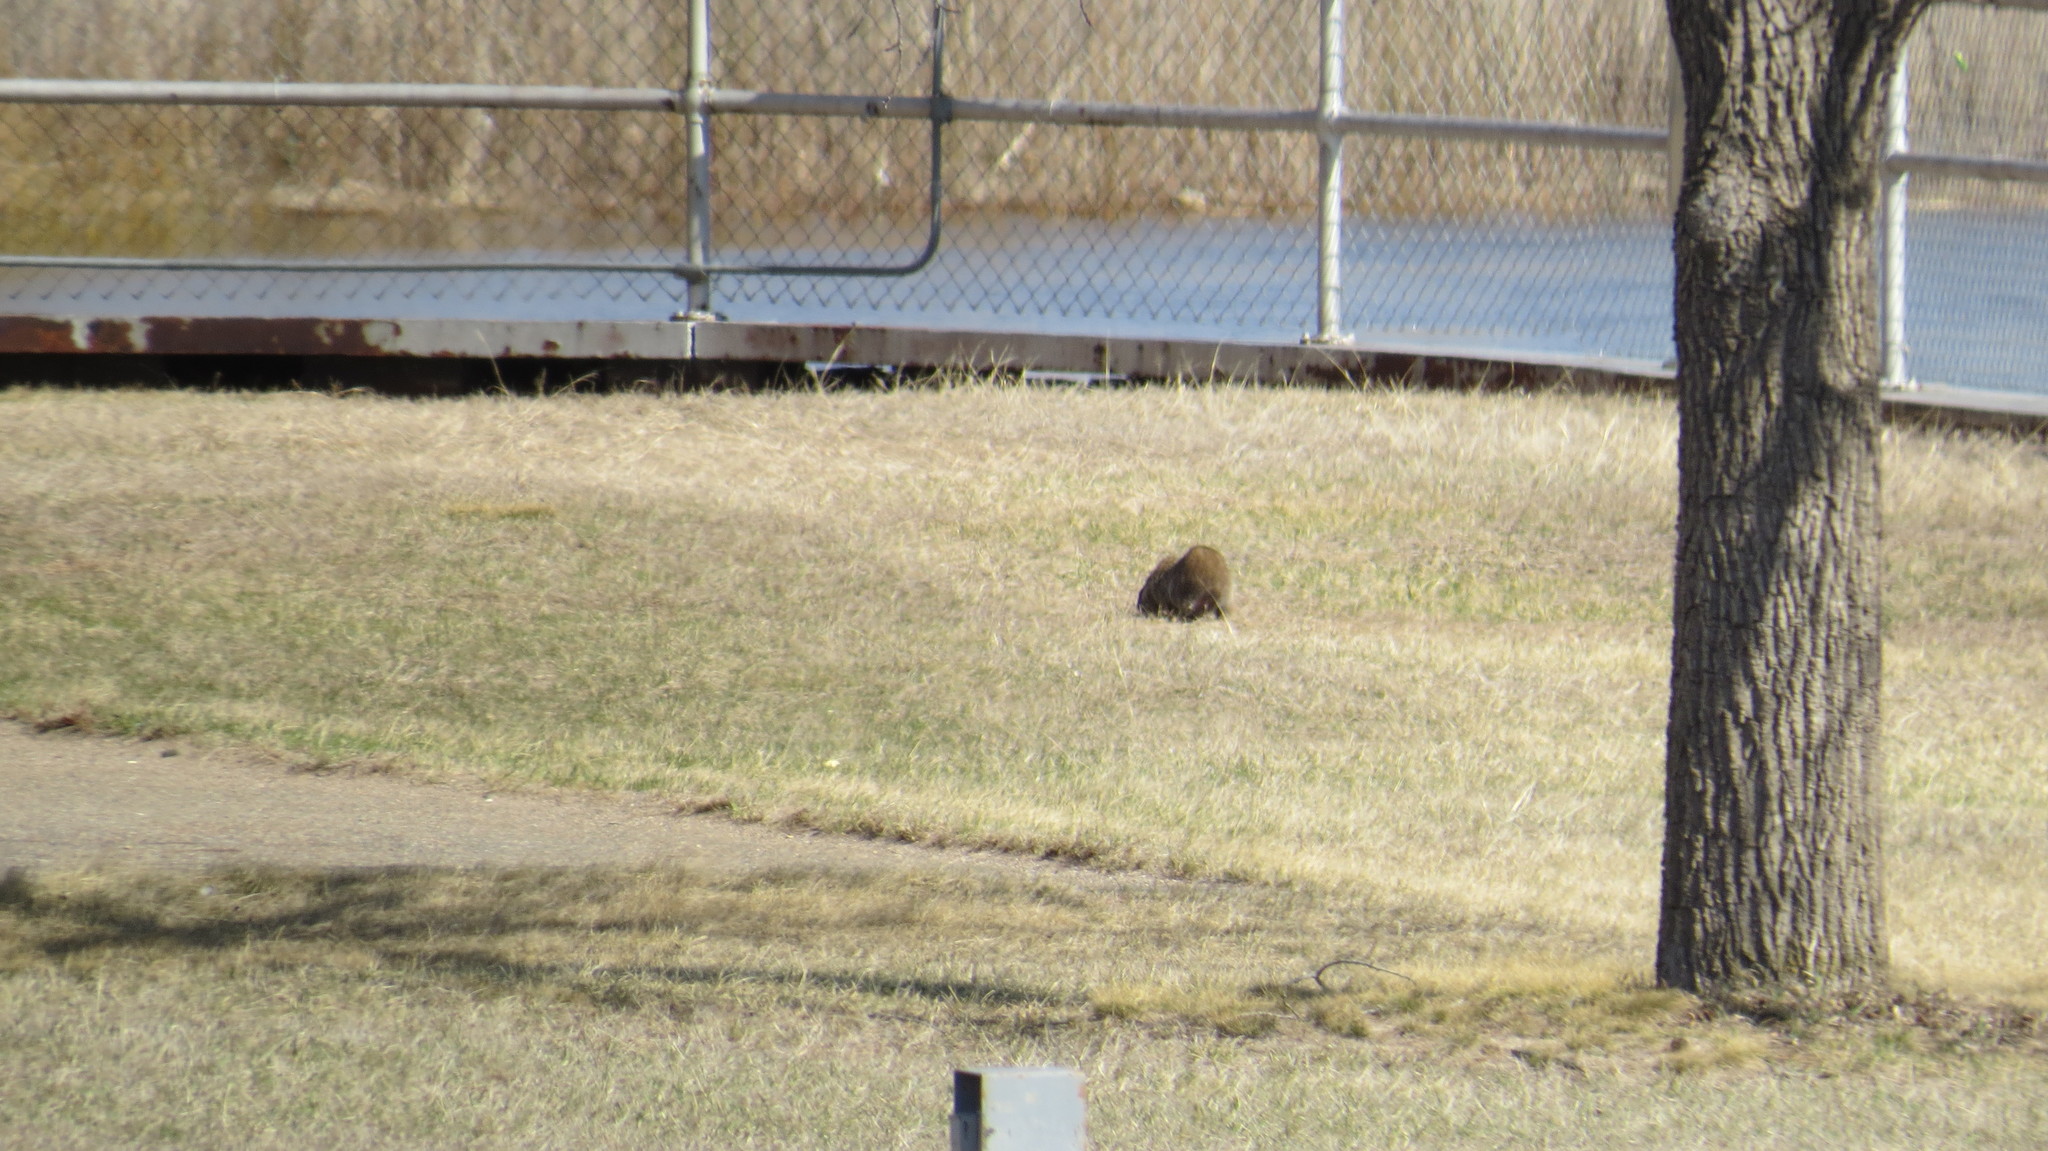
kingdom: Animalia
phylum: Chordata
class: Mammalia
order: Rodentia
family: Sciuridae
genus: Marmota
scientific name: Marmota monax
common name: Groundhog
